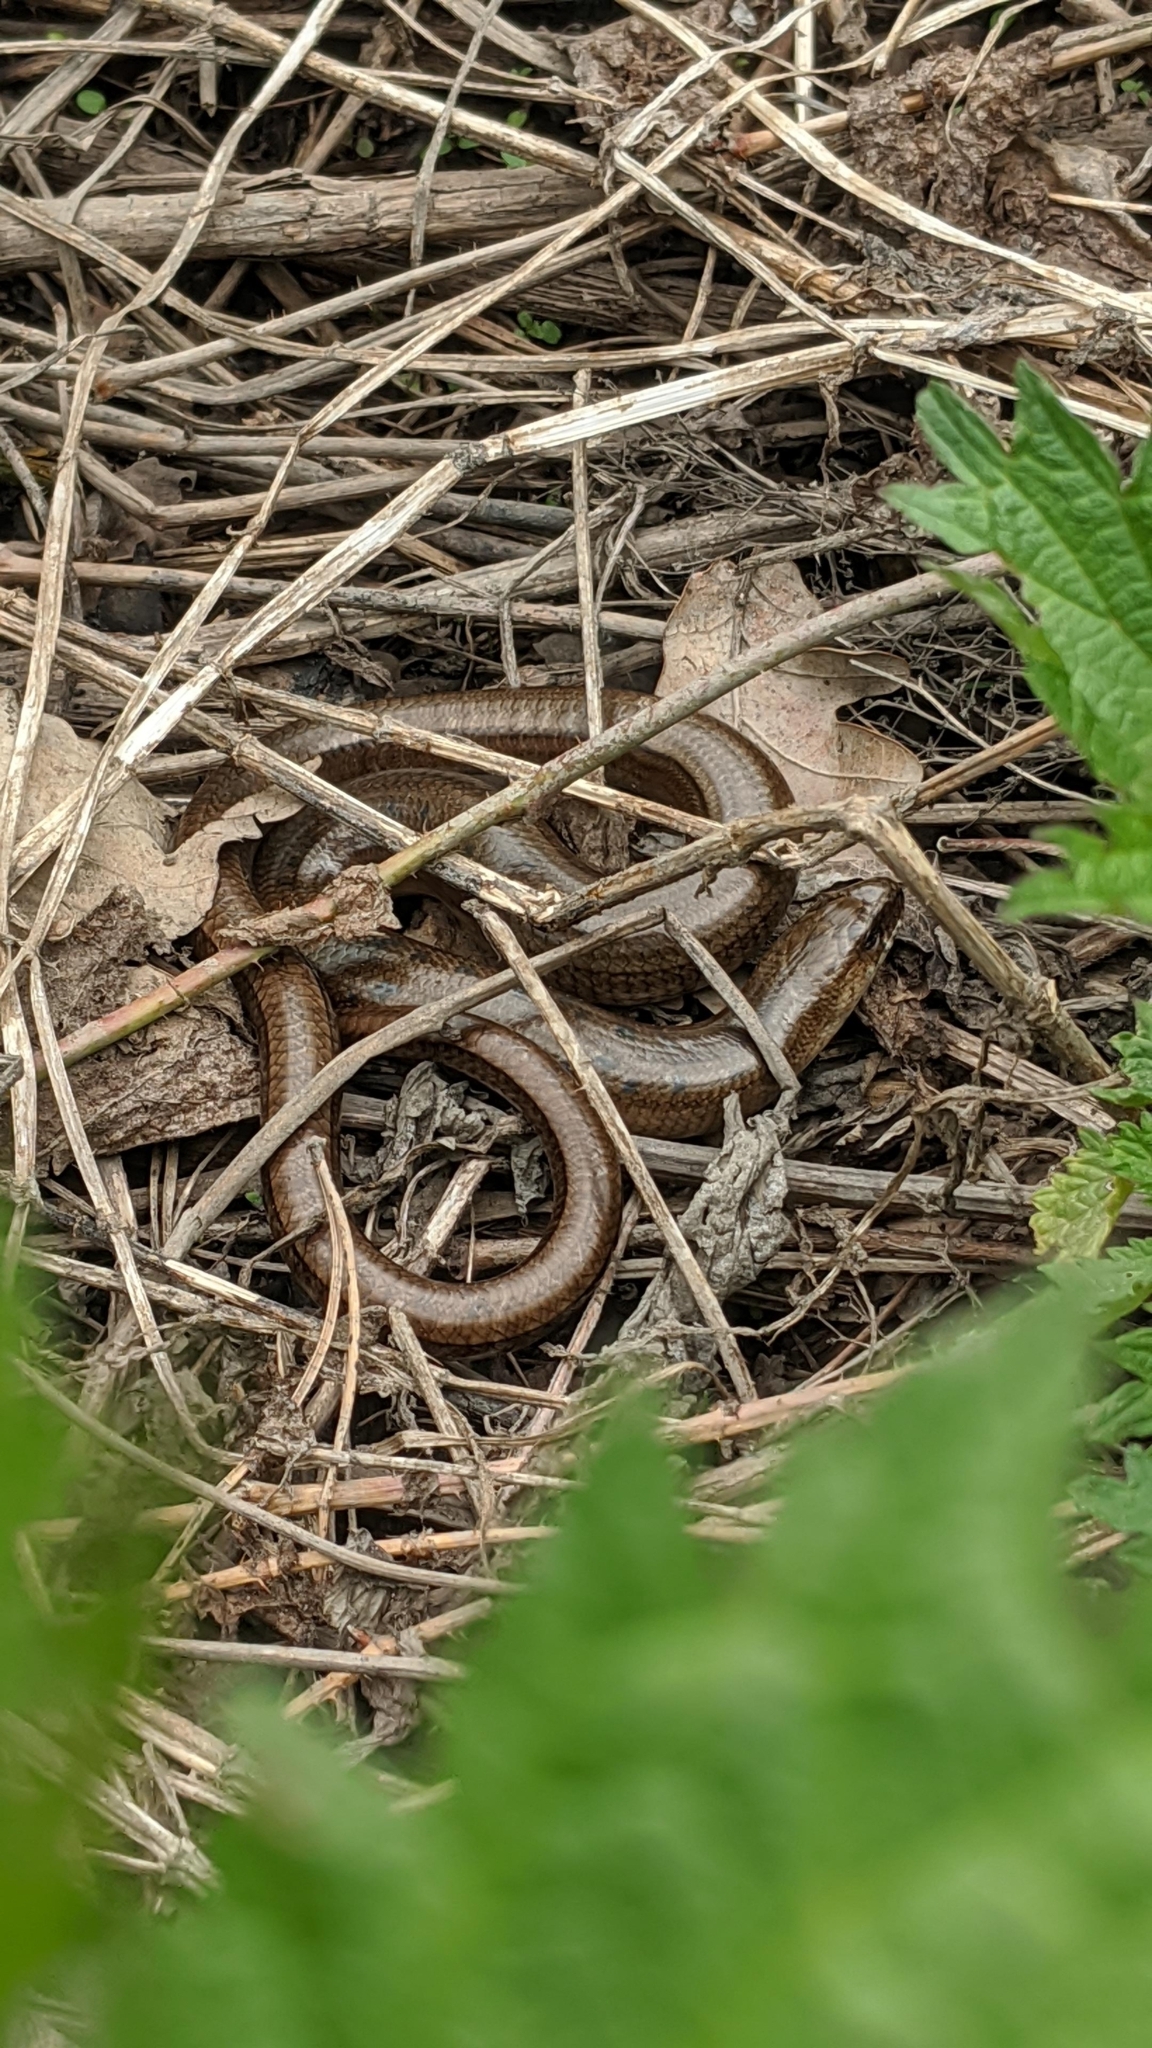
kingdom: Animalia
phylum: Chordata
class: Squamata
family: Anguidae
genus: Anguis
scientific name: Anguis colchica
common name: Slow worm
